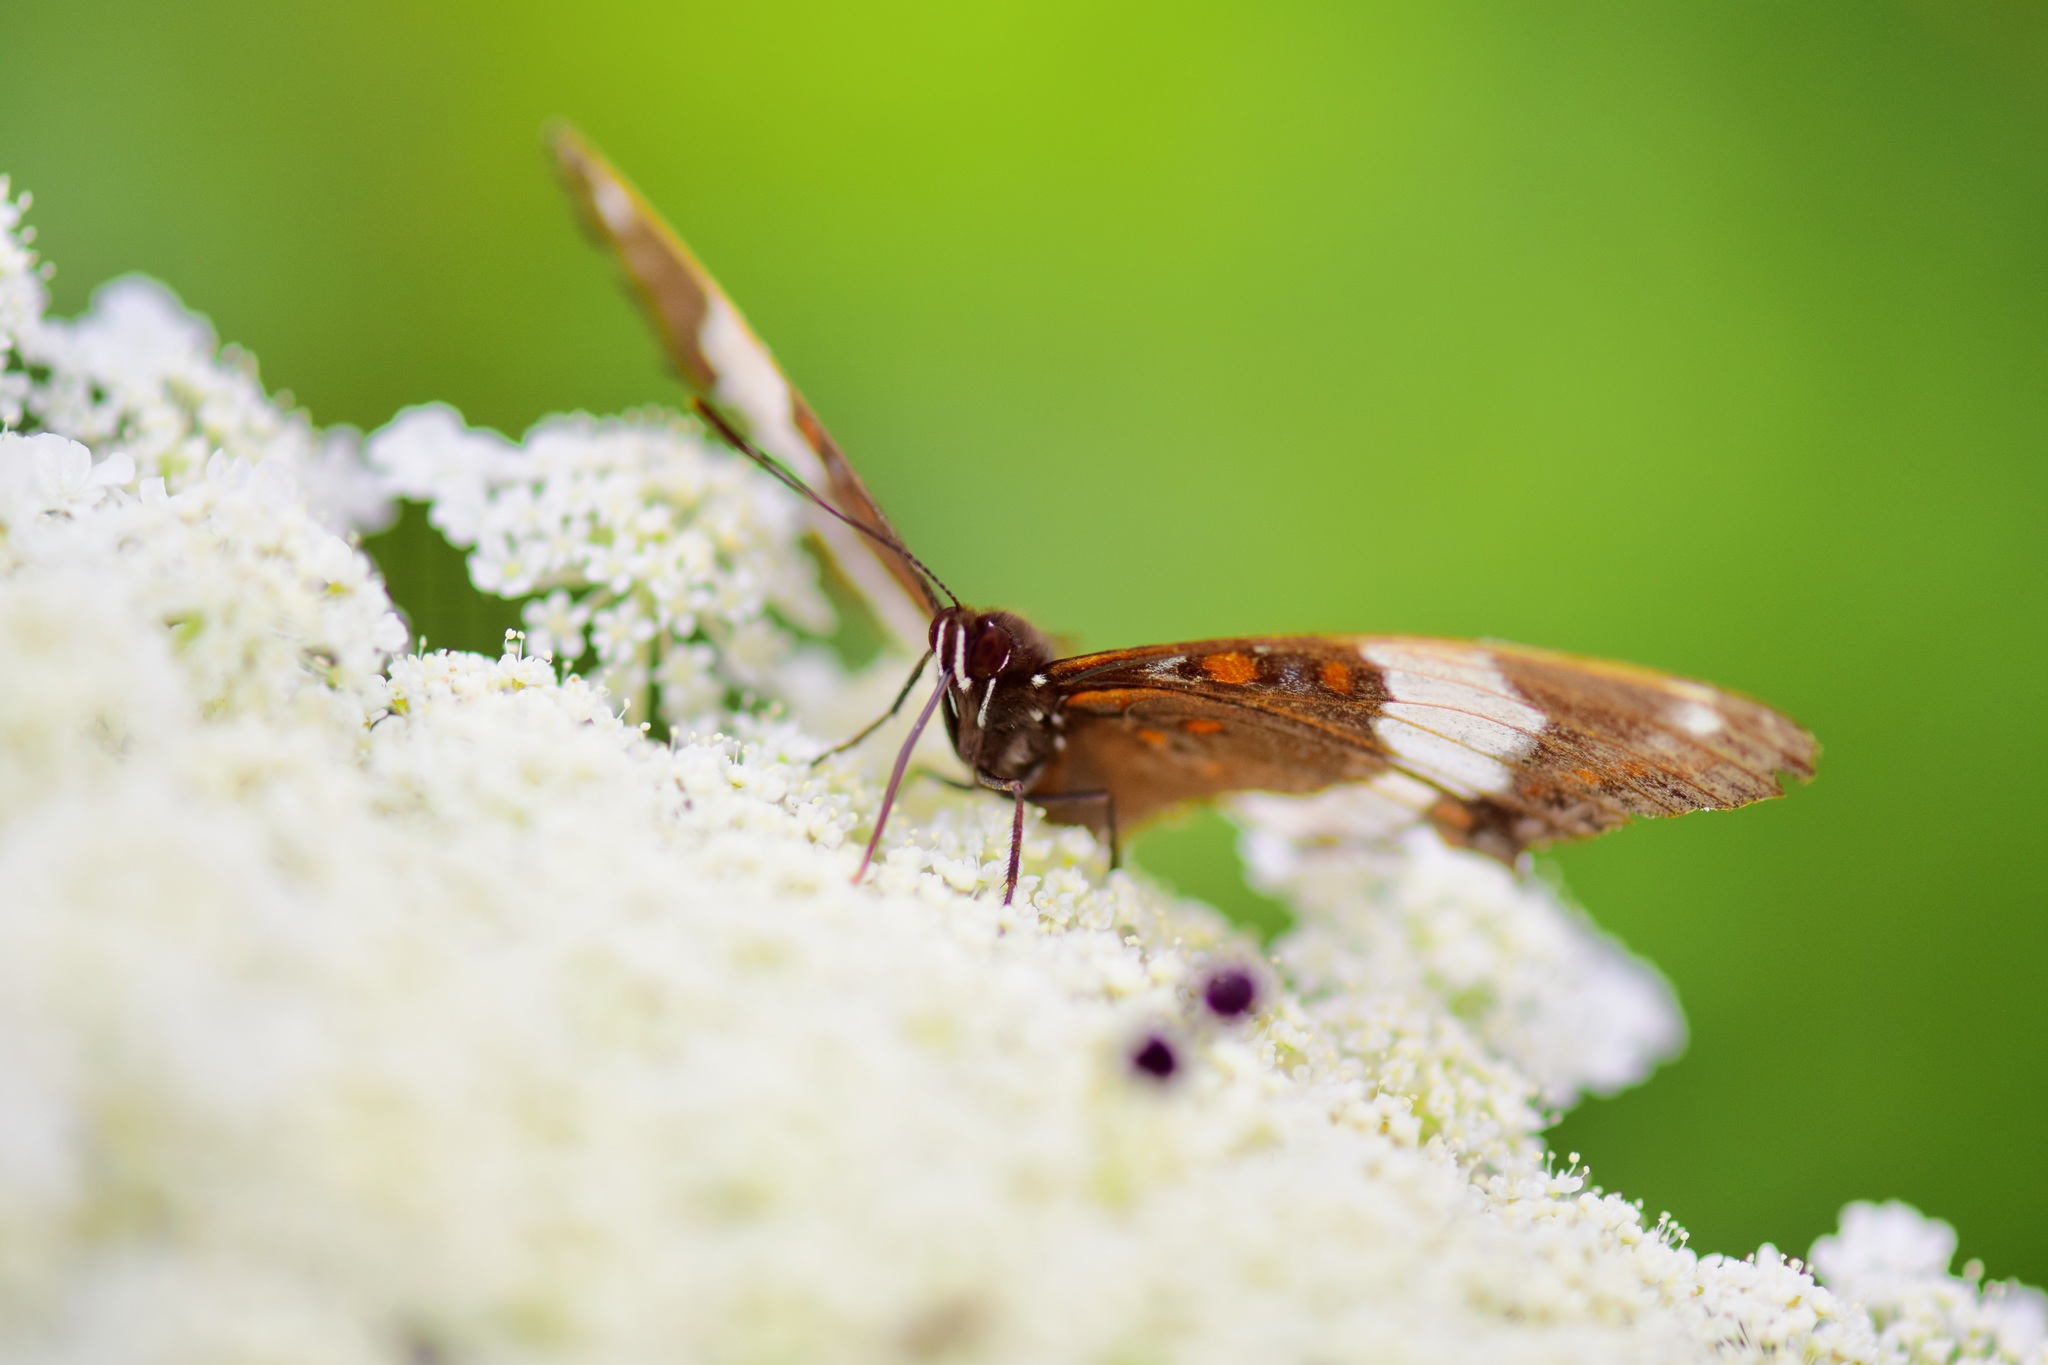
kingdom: Animalia
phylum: Arthropoda
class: Insecta
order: Lepidoptera
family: Nymphalidae
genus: Limenitis
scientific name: Limenitis arthemis
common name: Red-spotted admiral
